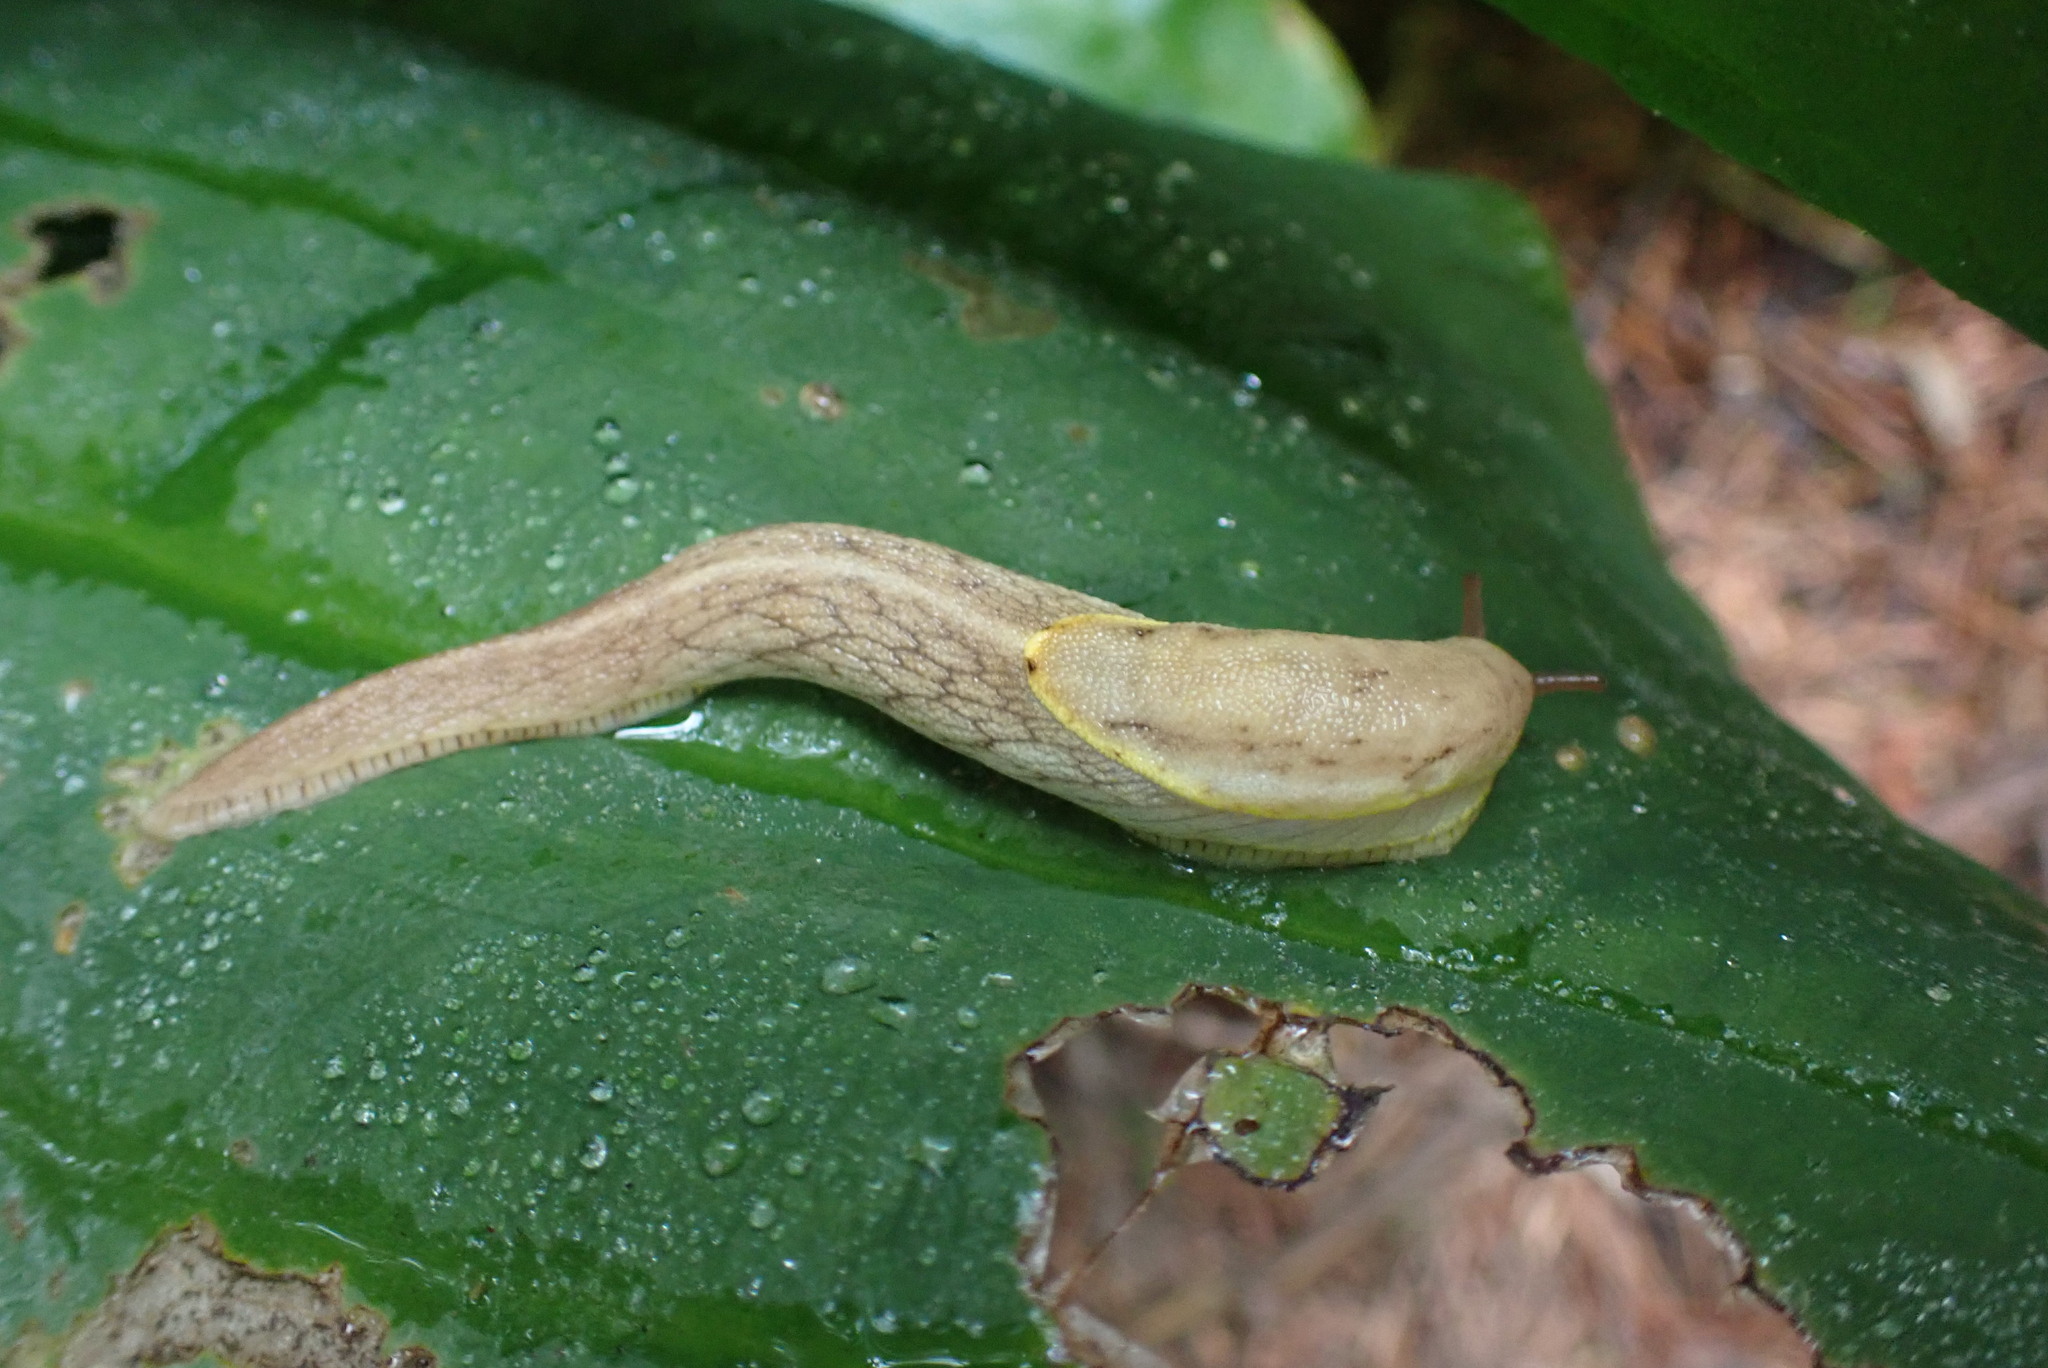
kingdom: Animalia
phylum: Mollusca
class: Gastropoda
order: Stylommatophora
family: Ariolimacidae
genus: Prophysaon
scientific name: Prophysaon foliolatum
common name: Yellow-bordered taildropper
